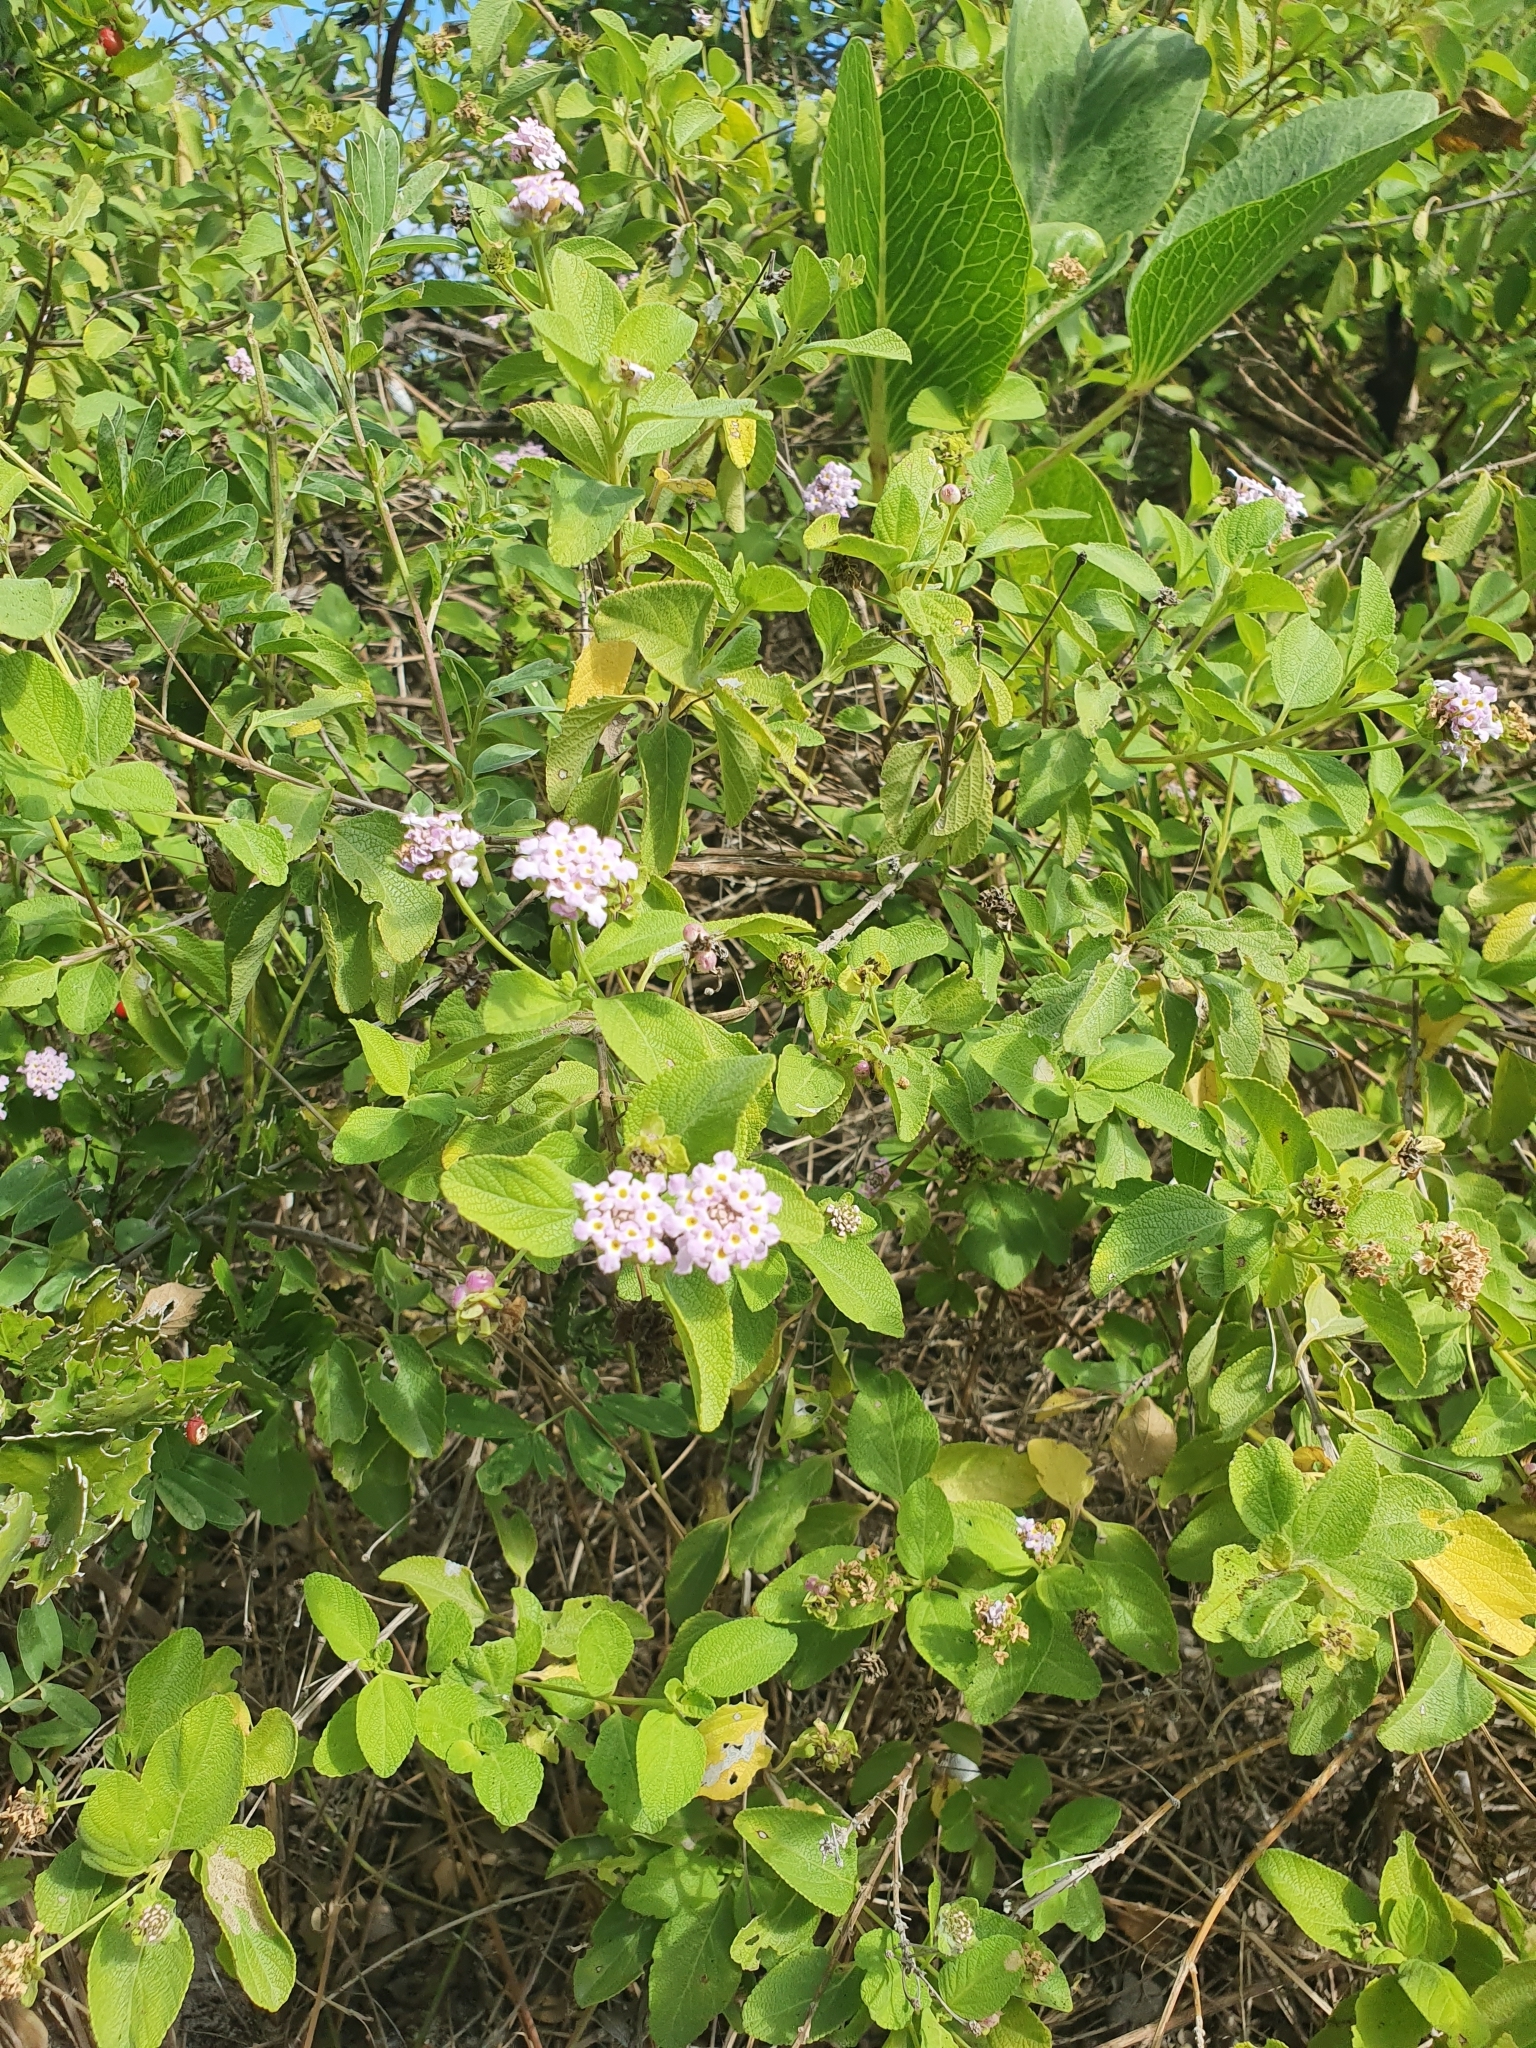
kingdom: Plantae
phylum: Tracheophyta
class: Magnoliopsida
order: Lamiales
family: Verbenaceae
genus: Lantana
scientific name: Lantana involucrata
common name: Black sage
